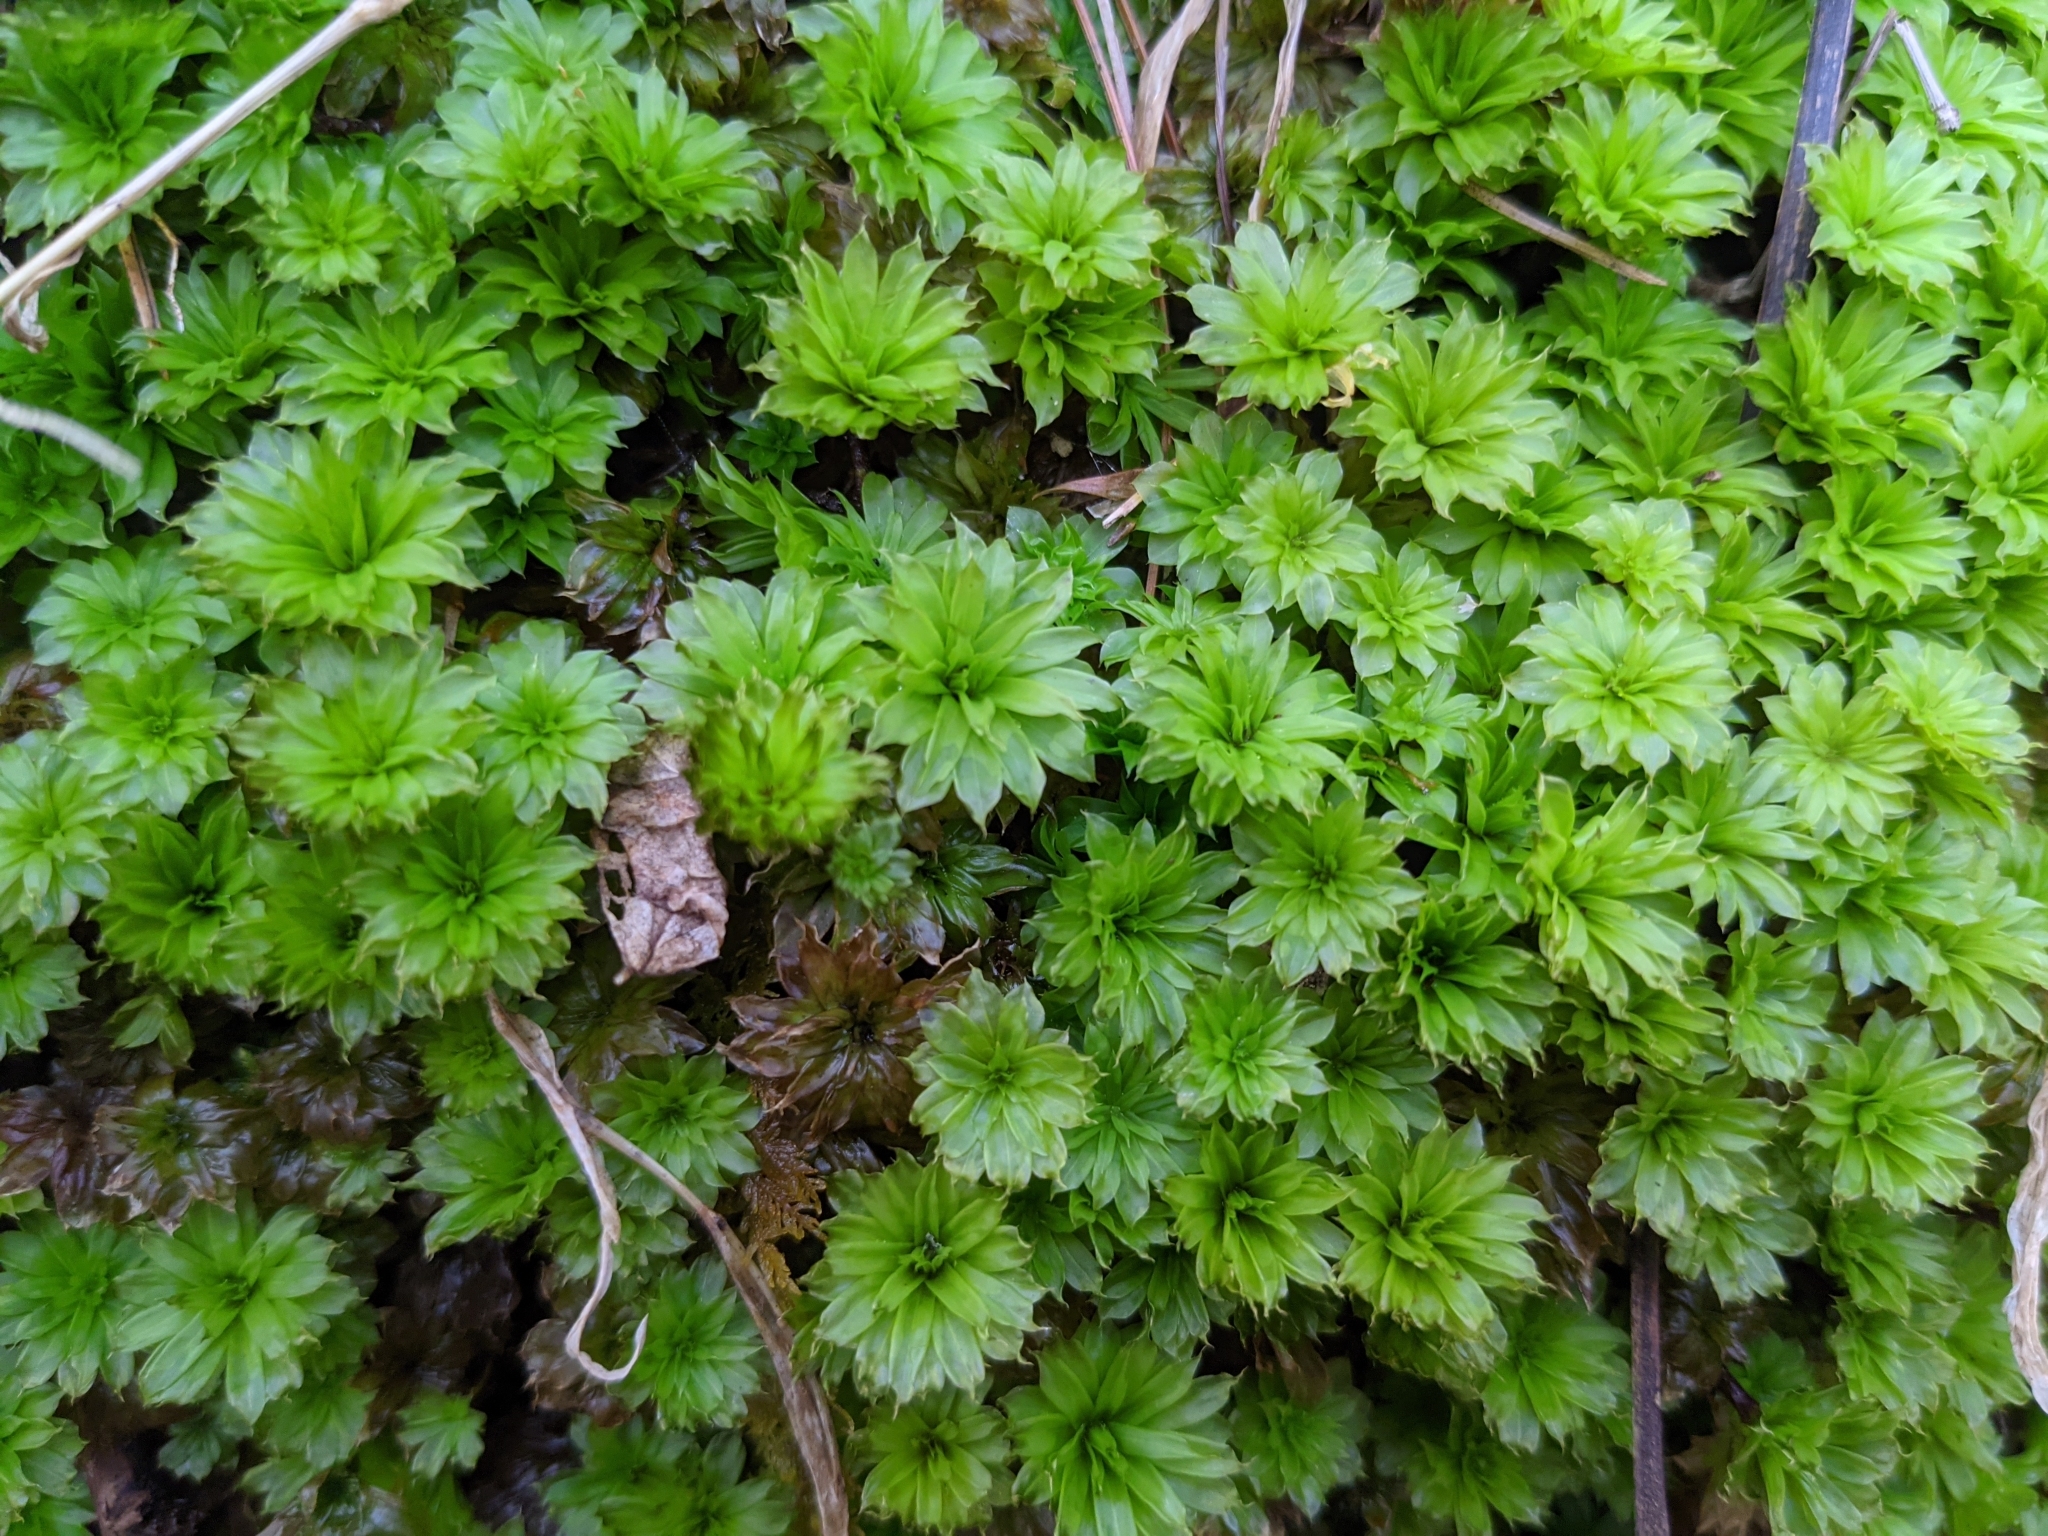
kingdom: Plantae
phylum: Bryophyta
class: Bryopsida
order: Bryales
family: Bryaceae
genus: Rhodobryum
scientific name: Rhodobryum ontariense
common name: Ontario rhodobryum moss
